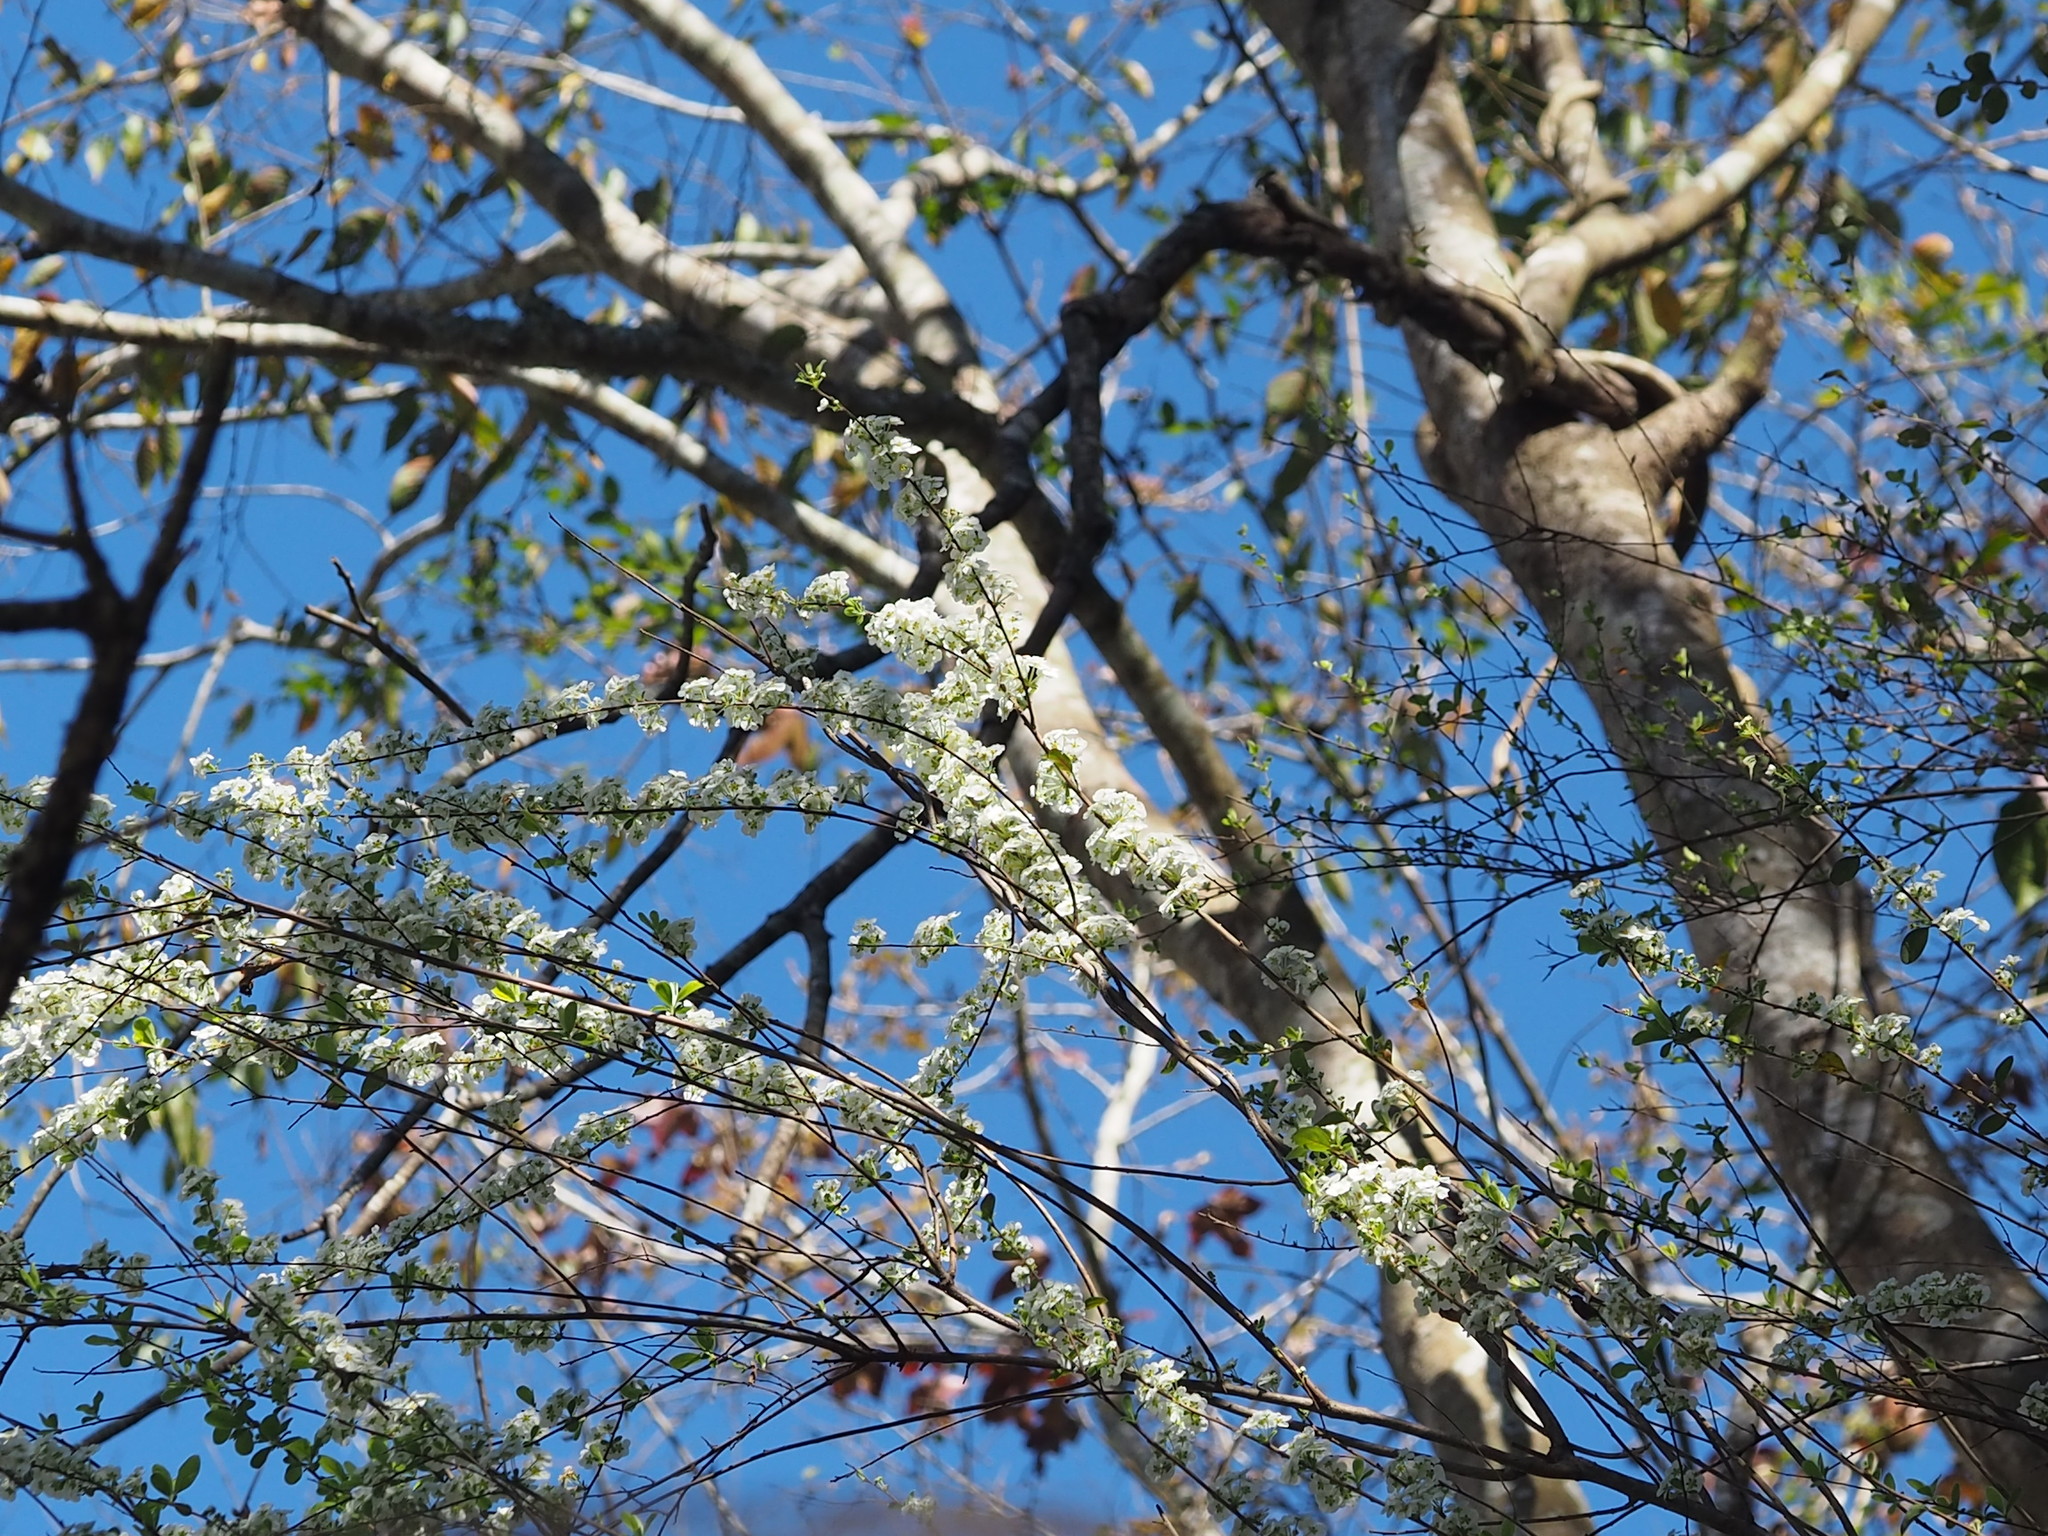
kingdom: Plantae
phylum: Tracheophyta
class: Magnoliopsida
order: Rosales
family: Rosaceae
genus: Spiraea
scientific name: Spiraea prunifolia
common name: Bridal-wreath spiraea
